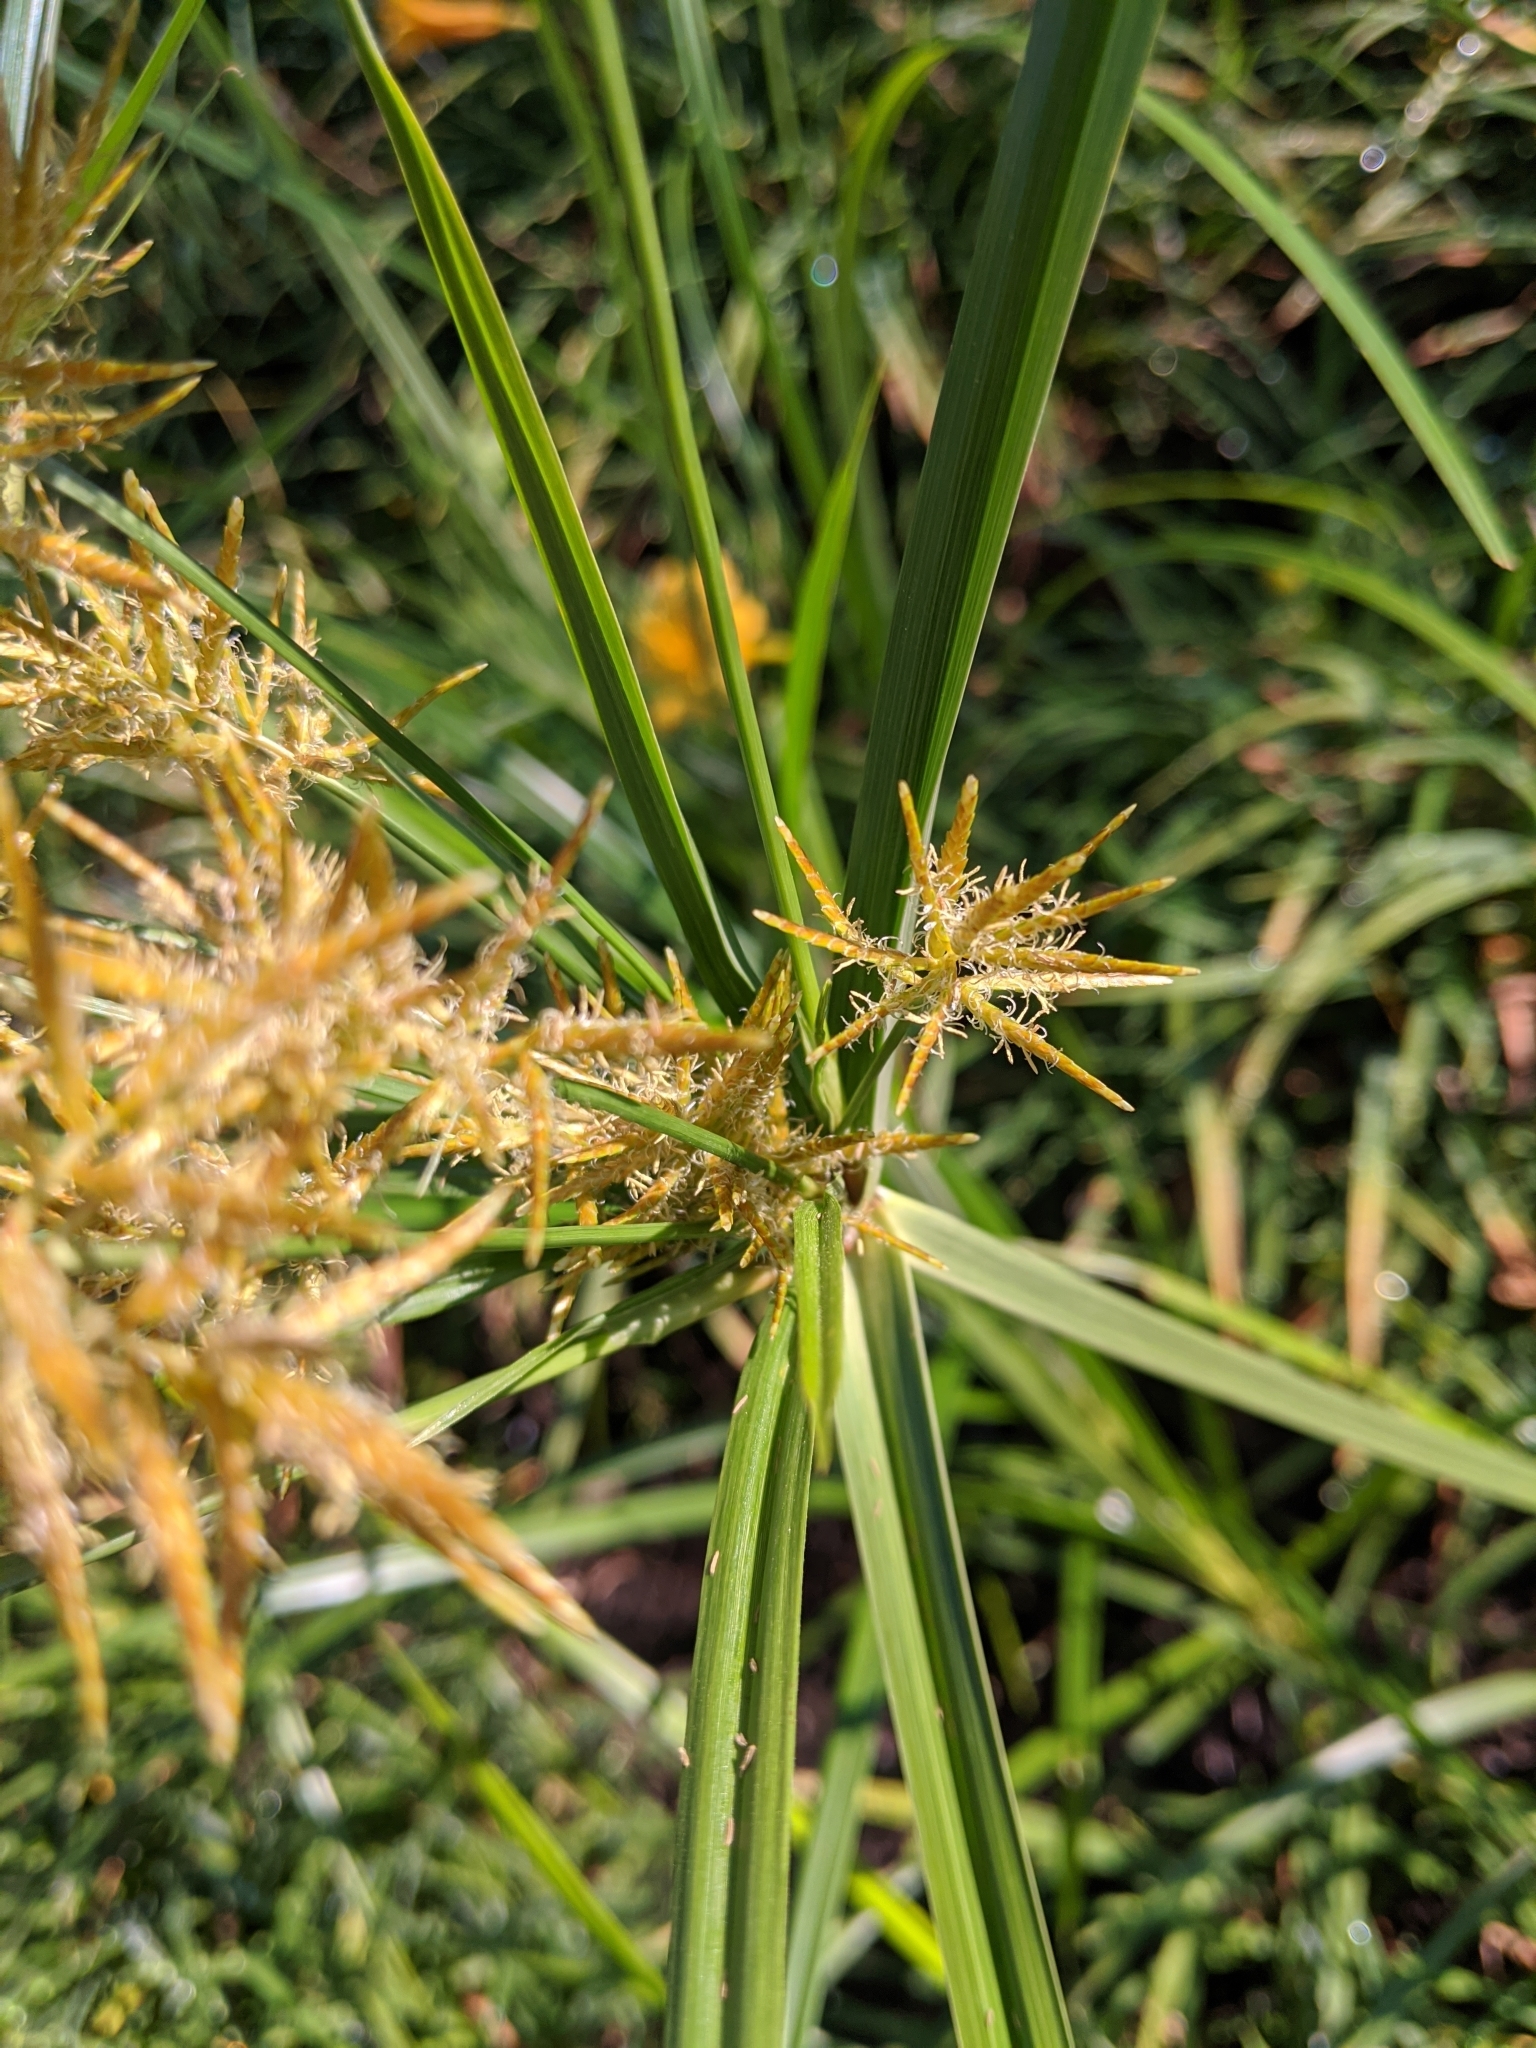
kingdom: Plantae
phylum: Tracheophyta
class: Liliopsida
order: Poales
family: Cyperaceae
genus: Cyperus
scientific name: Cyperus esculentus
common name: Yellow nutsedge
